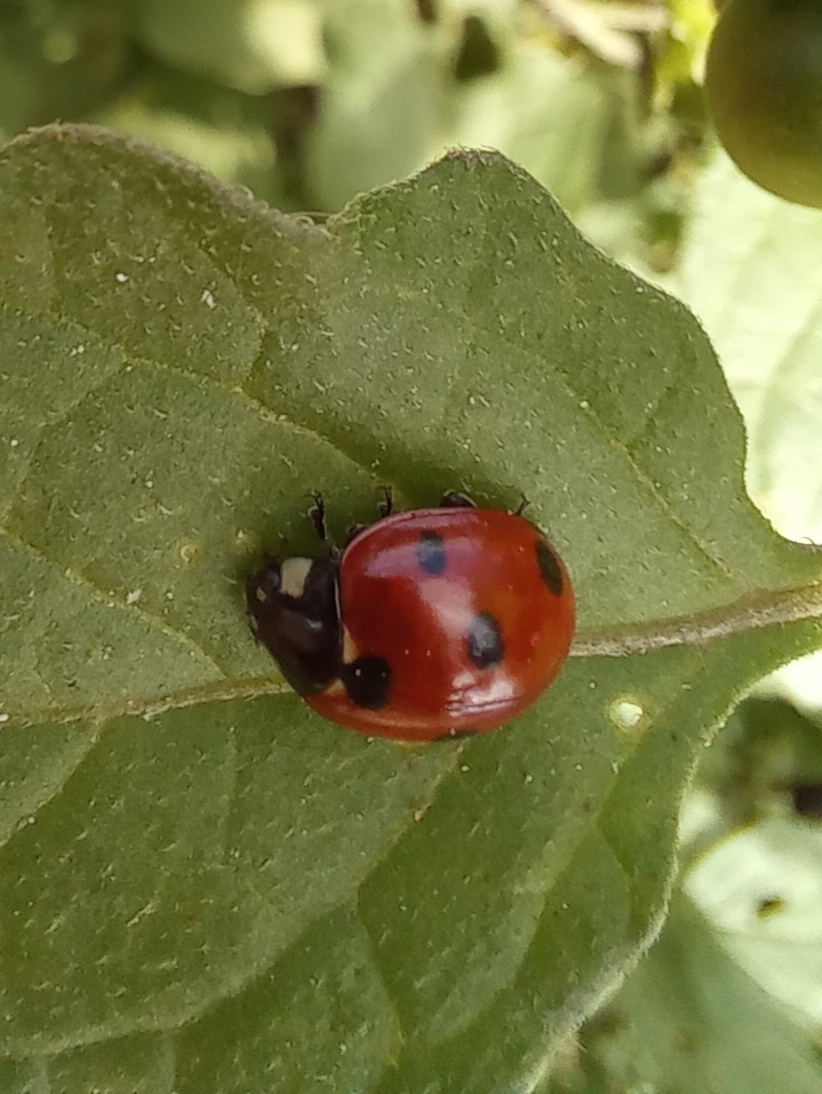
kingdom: Animalia
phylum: Arthropoda
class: Insecta
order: Coleoptera
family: Coccinellidae
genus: Coccinella
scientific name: Coccinella septempunctata
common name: Sevenspotted lady beetle
